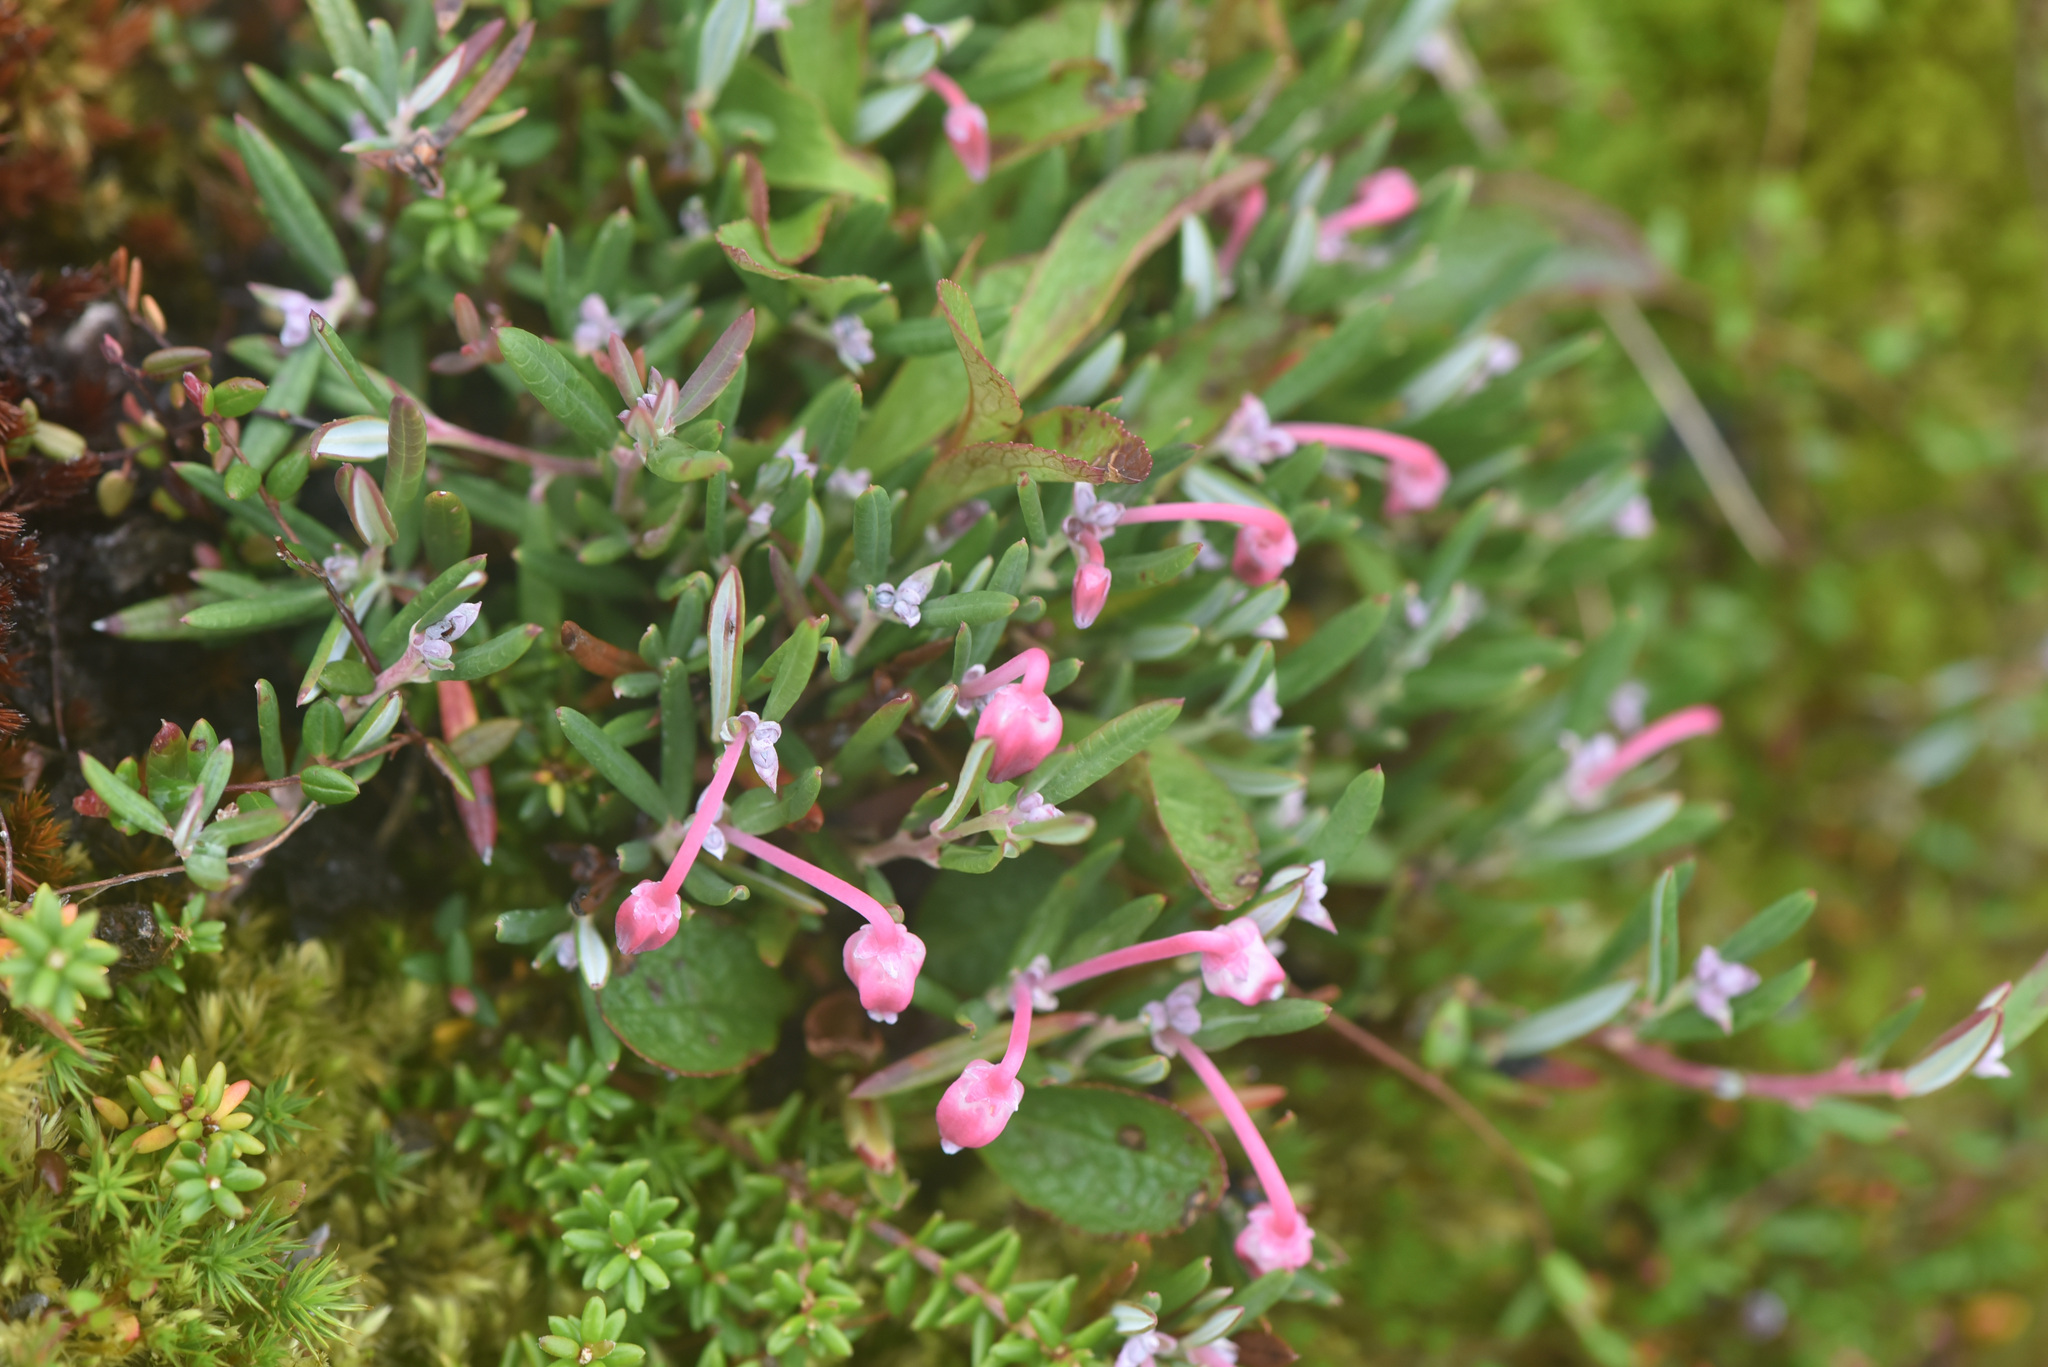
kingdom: Plantae
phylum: Tracheophyta
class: Magnoliopsida
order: Ericales
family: Ericaceae
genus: Andromeda
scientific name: Andromeda polifolia
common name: Bog-rosemary
